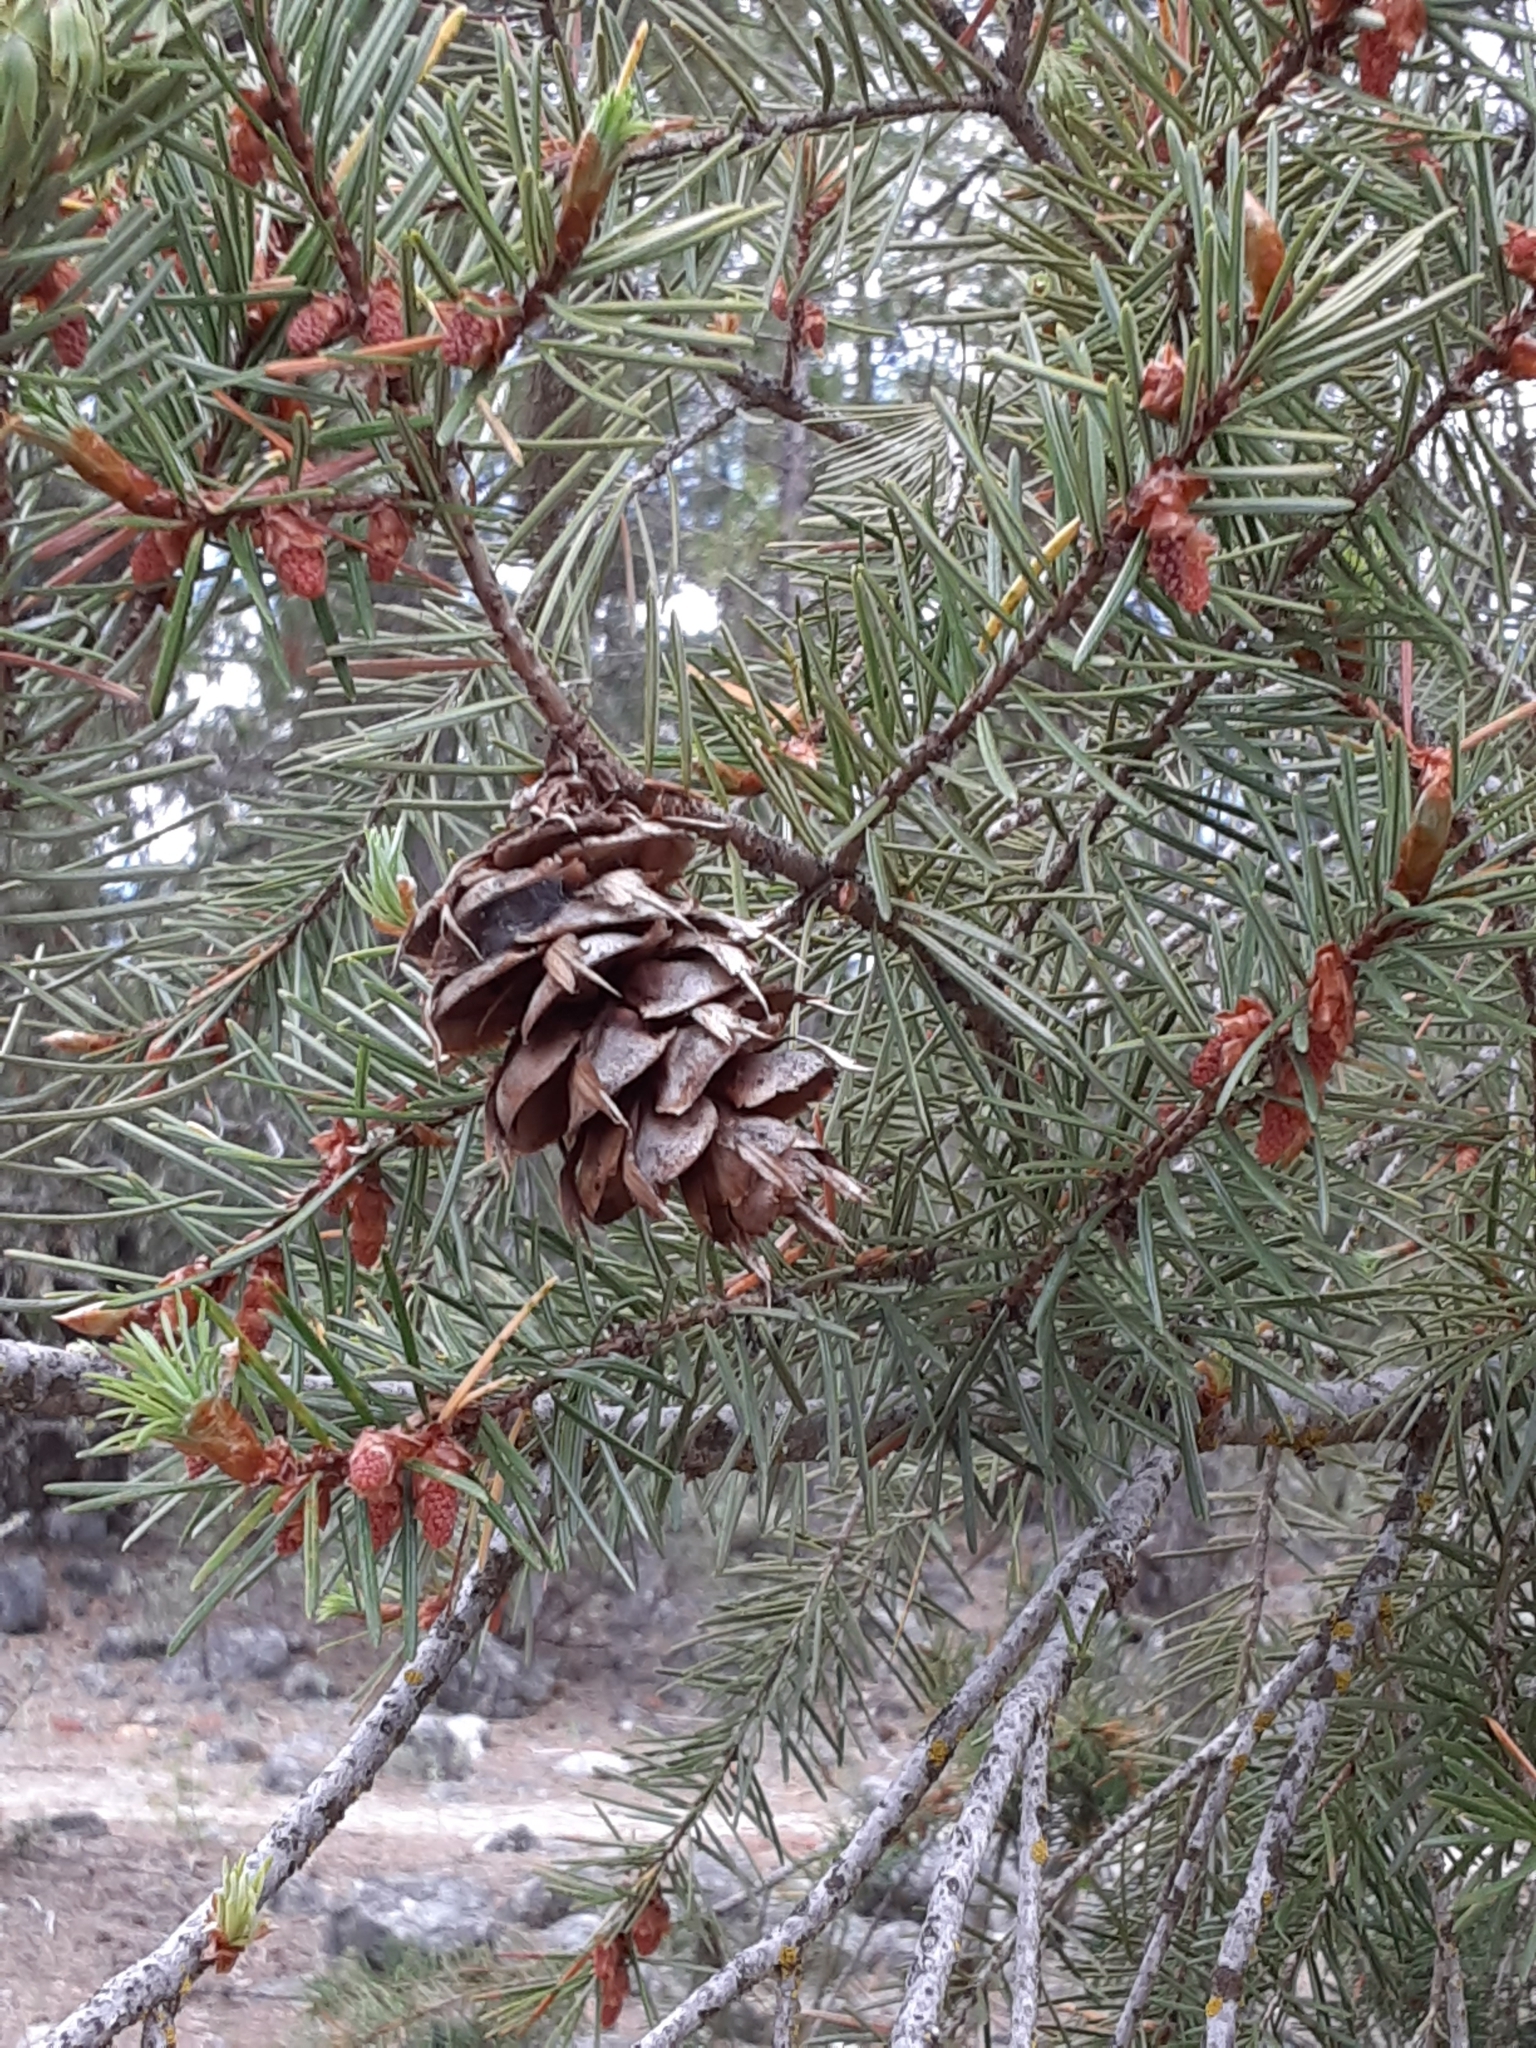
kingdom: Plantae
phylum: Tracheophyta
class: Pinopsida
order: Pinales
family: Pinaceae
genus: Pseudotsuga
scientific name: Pseudotsuga menziesii
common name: Douglas fir
